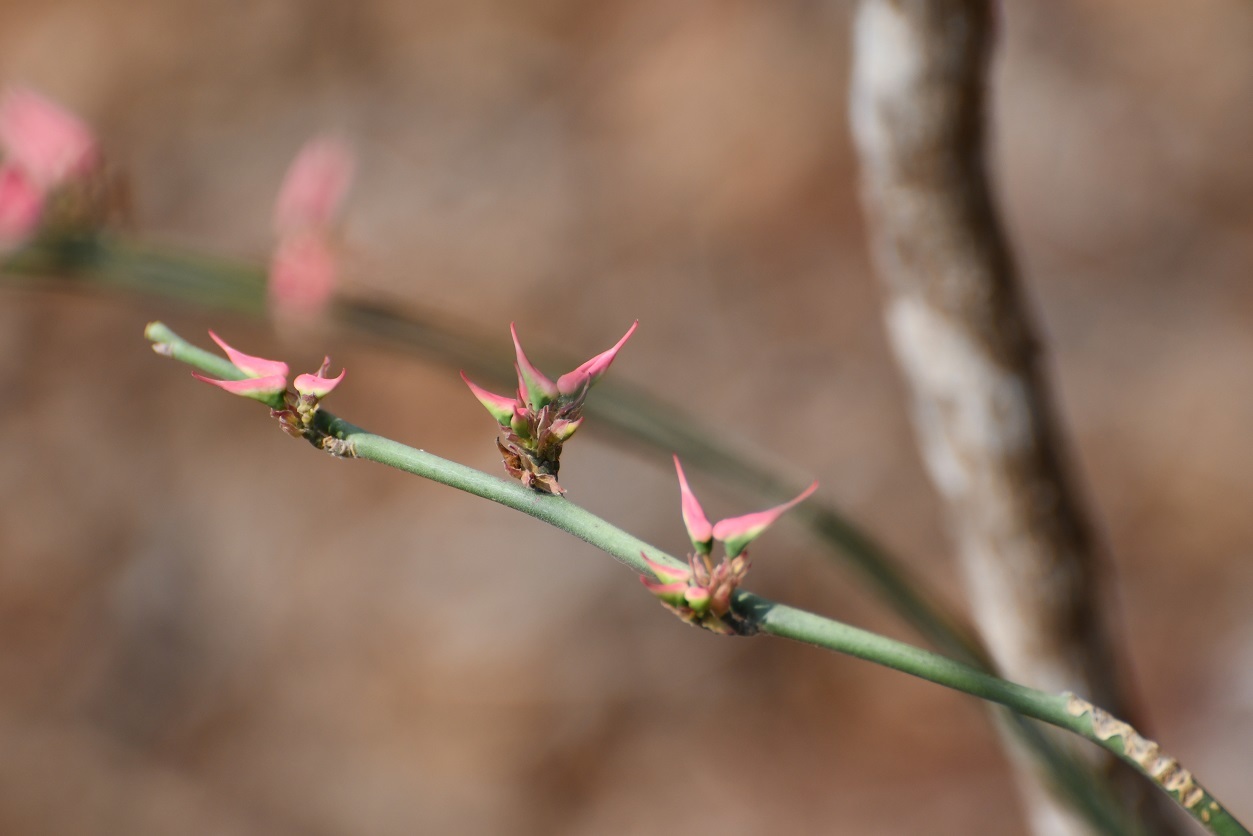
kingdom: Plantae
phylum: Tracheophyta
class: Magnoliopsida
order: Malpighiales
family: Euphorbiaceae
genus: Euphorbia
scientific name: Euphorbia tithymaloides
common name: Slipperplant
